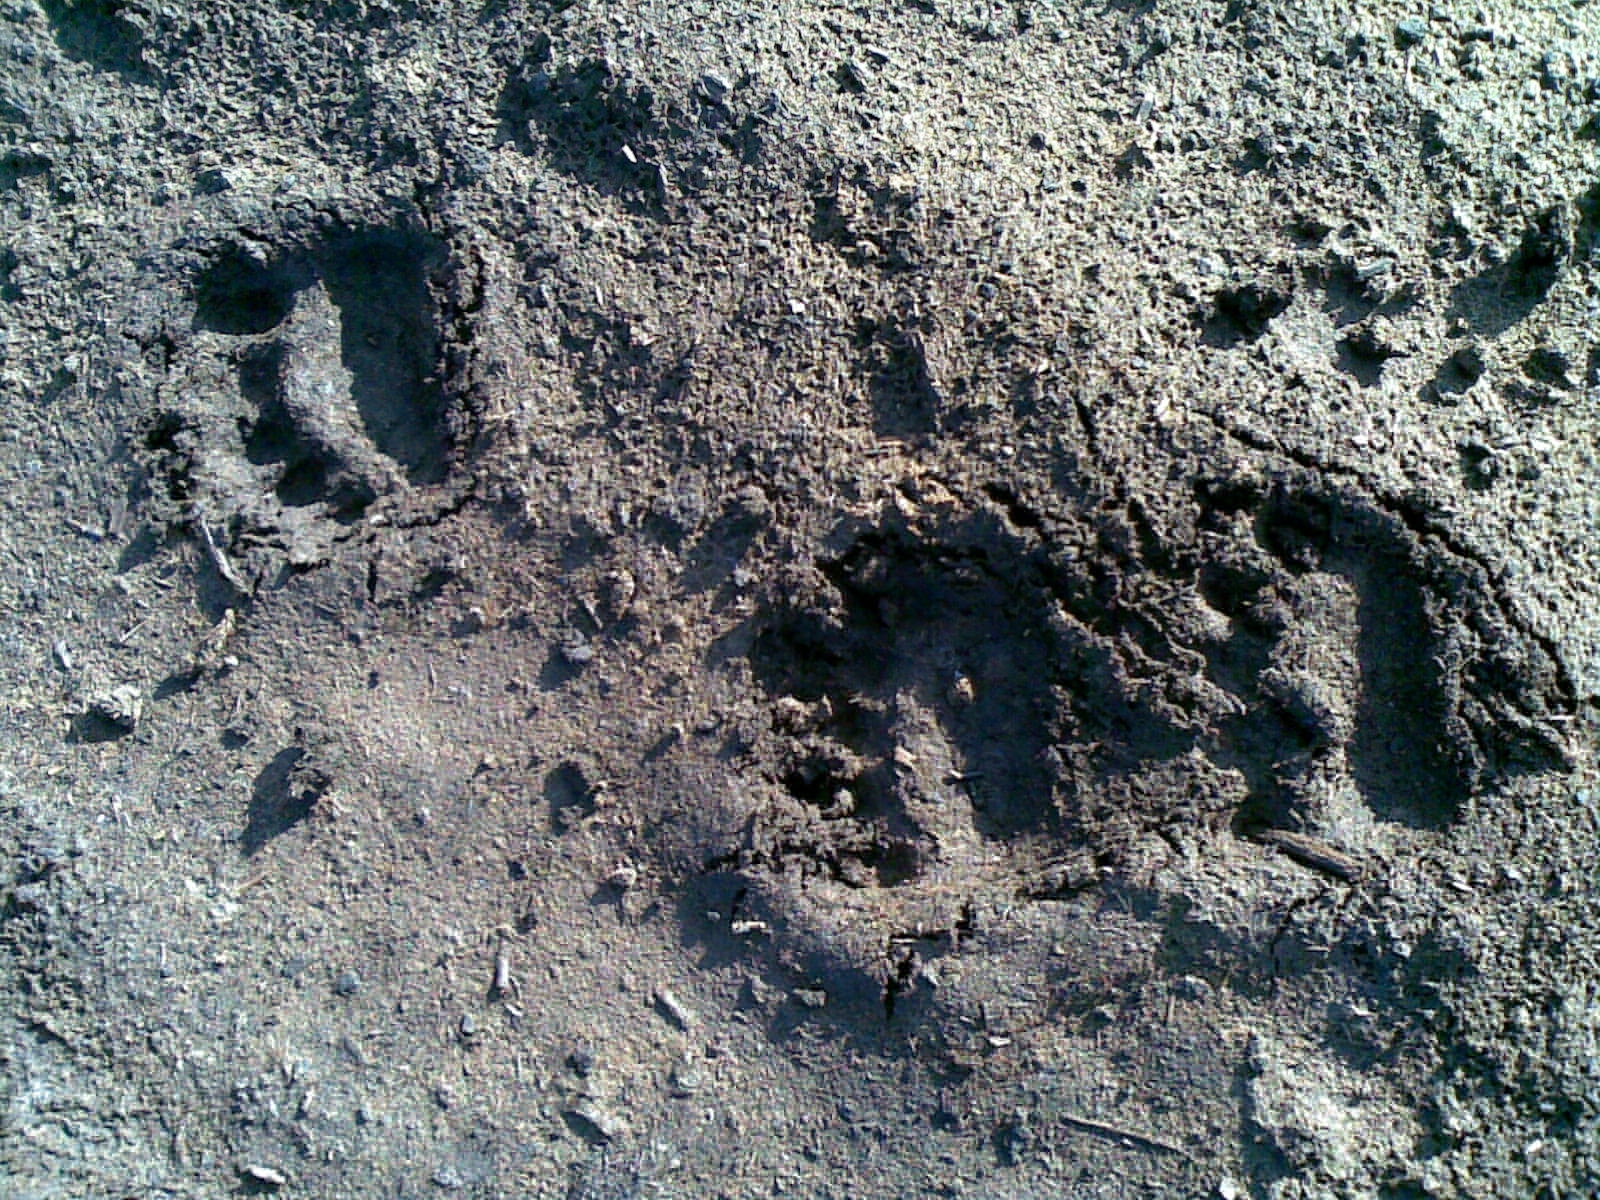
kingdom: Animalia
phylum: Chordata
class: Mammalia
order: Carnivora
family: Ursidae
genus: Ursus
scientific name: Ursus arctos
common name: Brown bear
